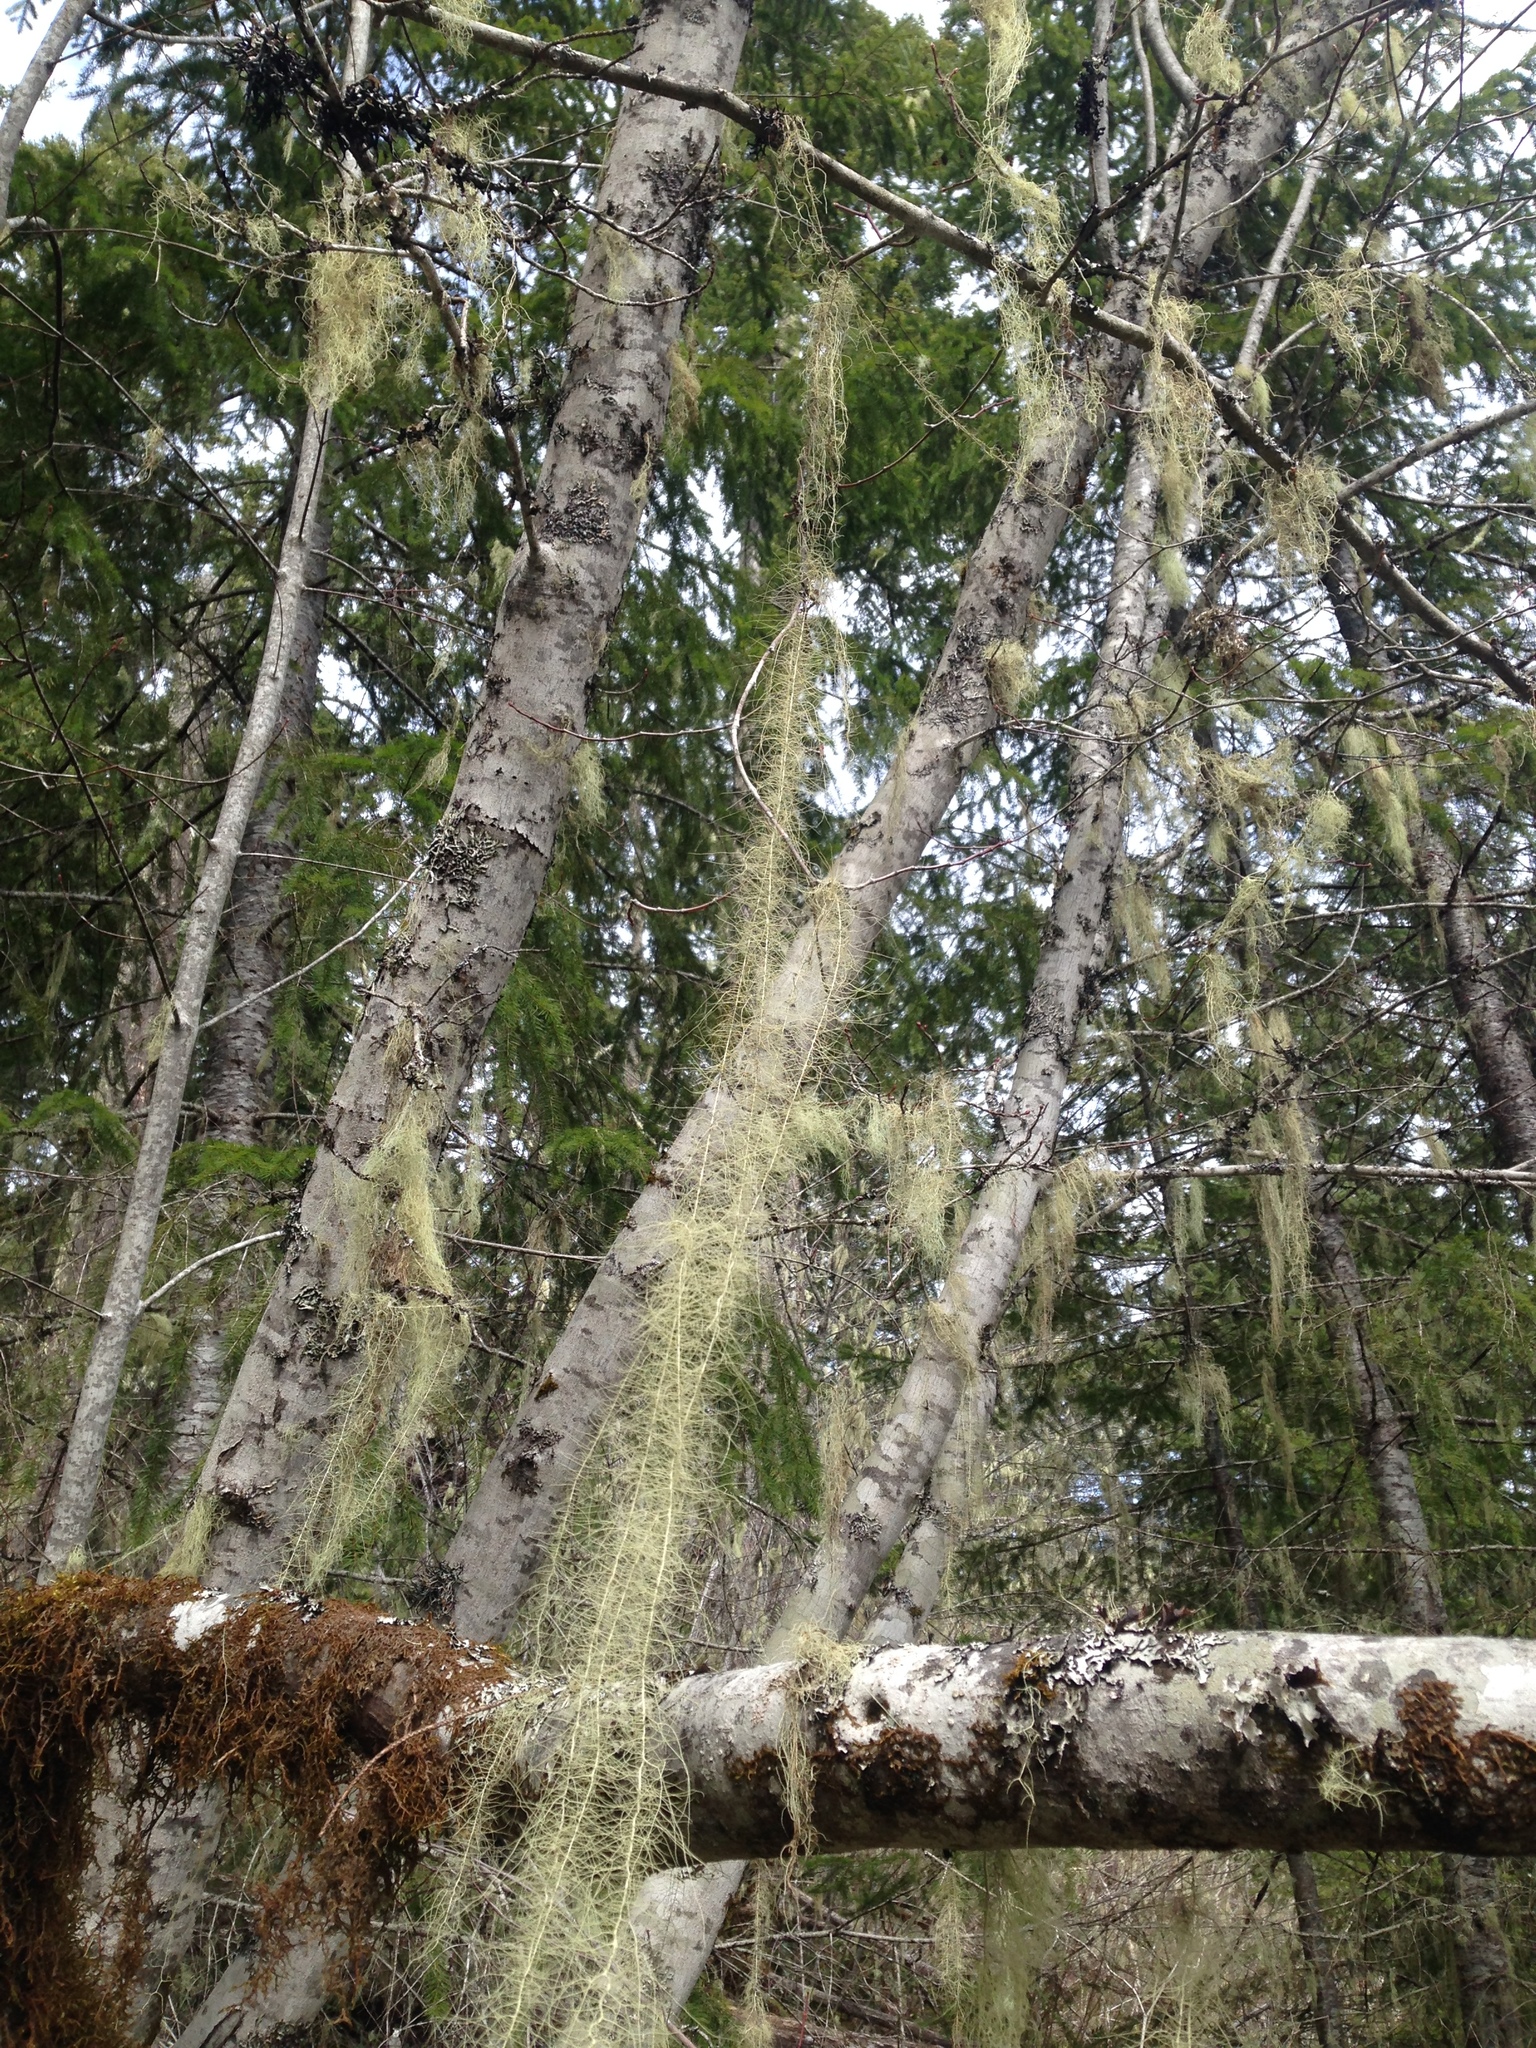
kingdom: Fungi
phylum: Ascomycota
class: Lecanoromycetes
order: Lecanorales
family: Parmeliaceae
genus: Dolichousnea
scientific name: Dolichousnea longissima
